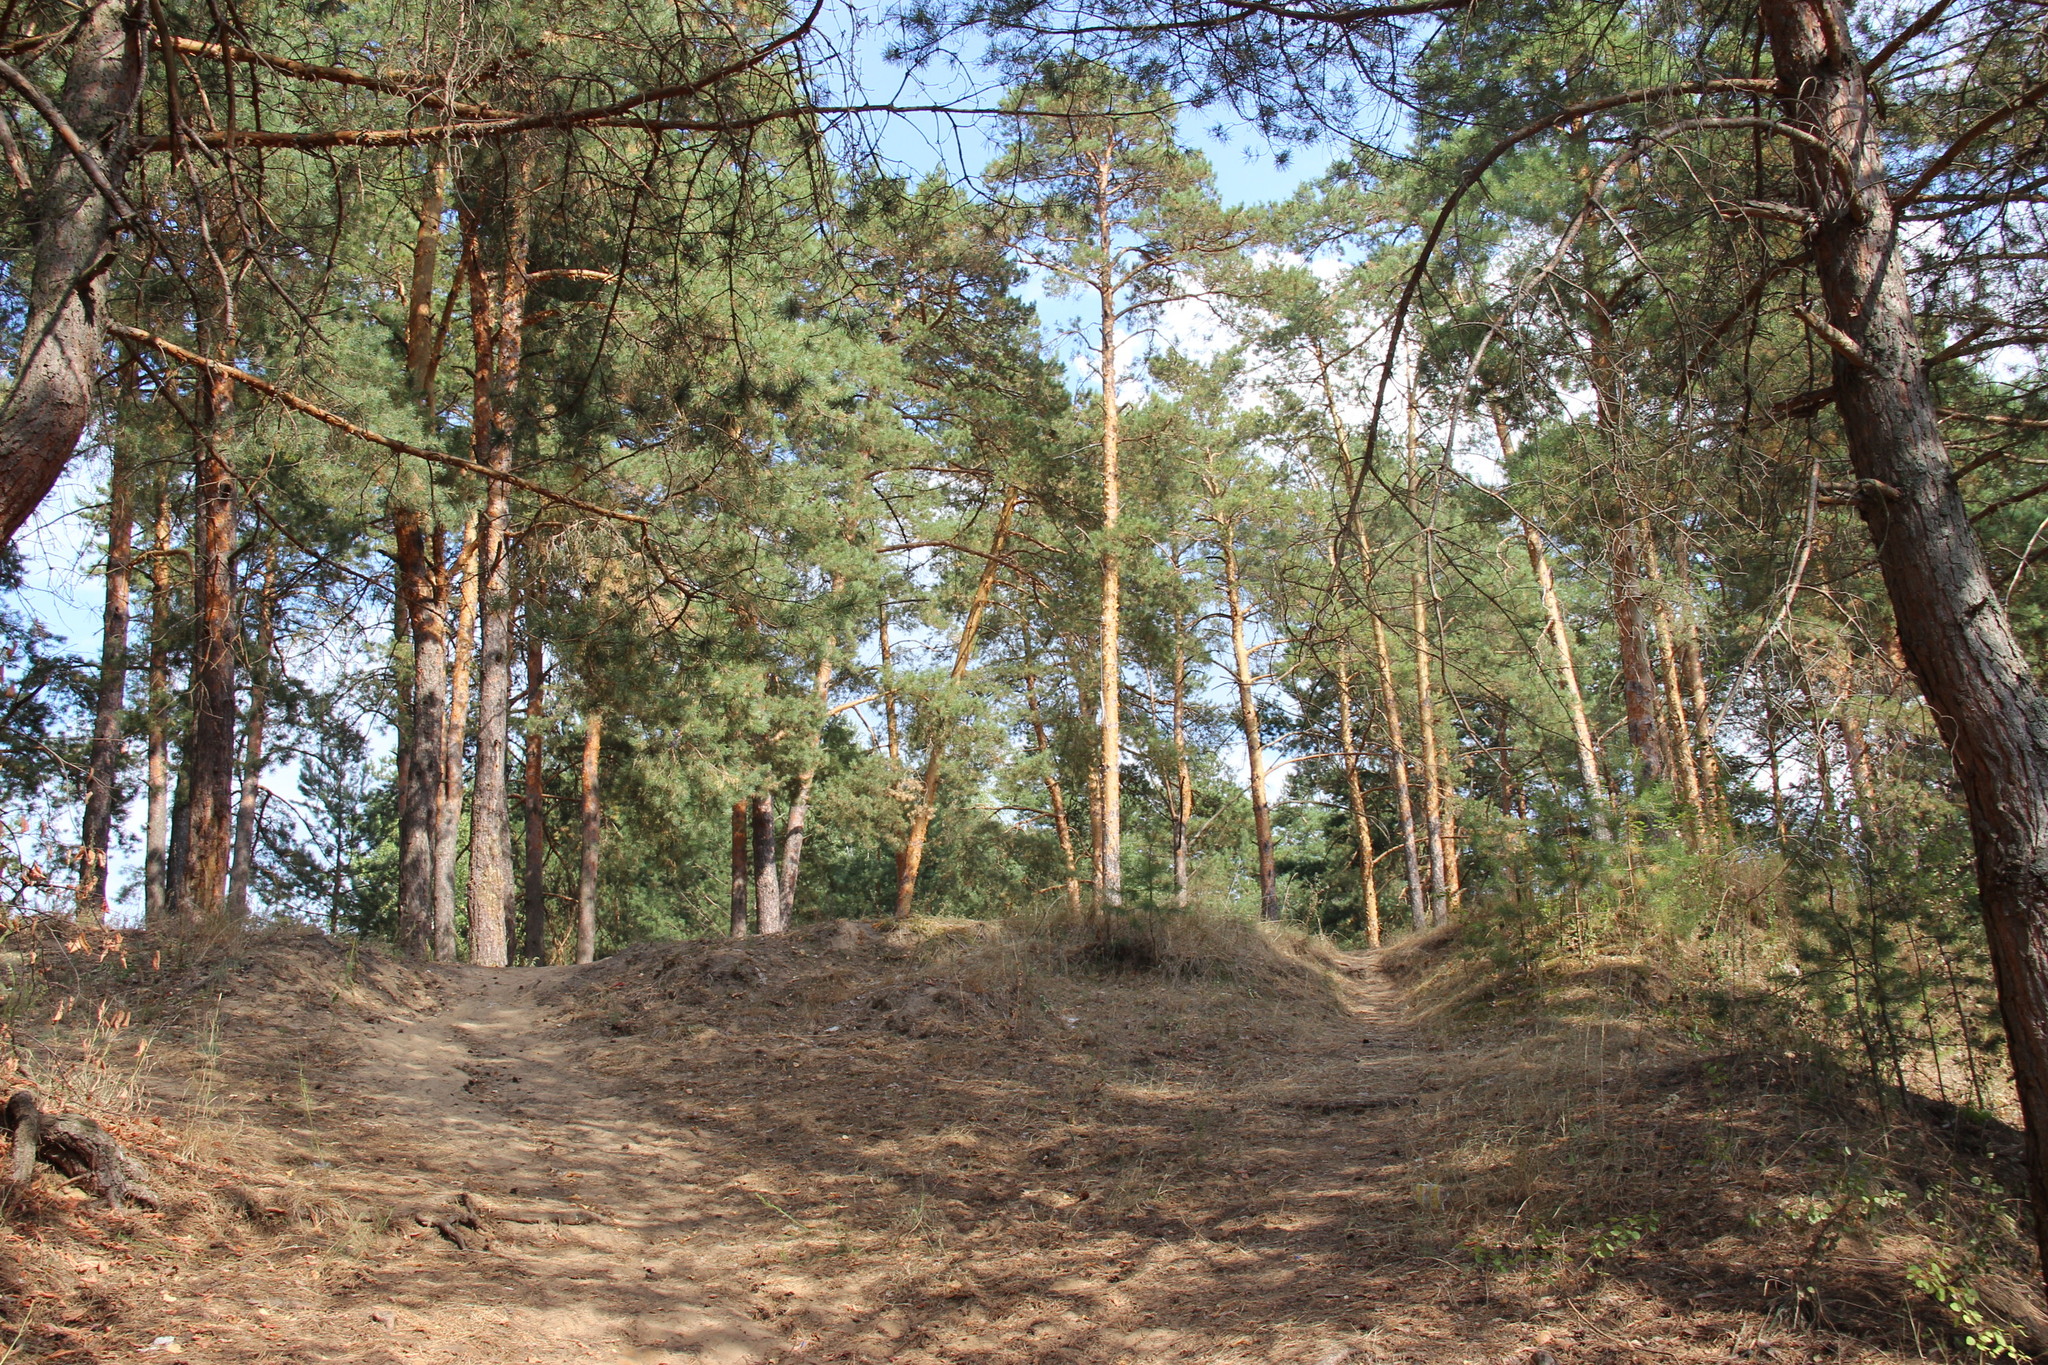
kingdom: Plantae
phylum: Tracheophyta
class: Pinopsida
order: Pinales
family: Pinaceae
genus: Pinus
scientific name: Pinus sylvestris
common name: Scots pine
